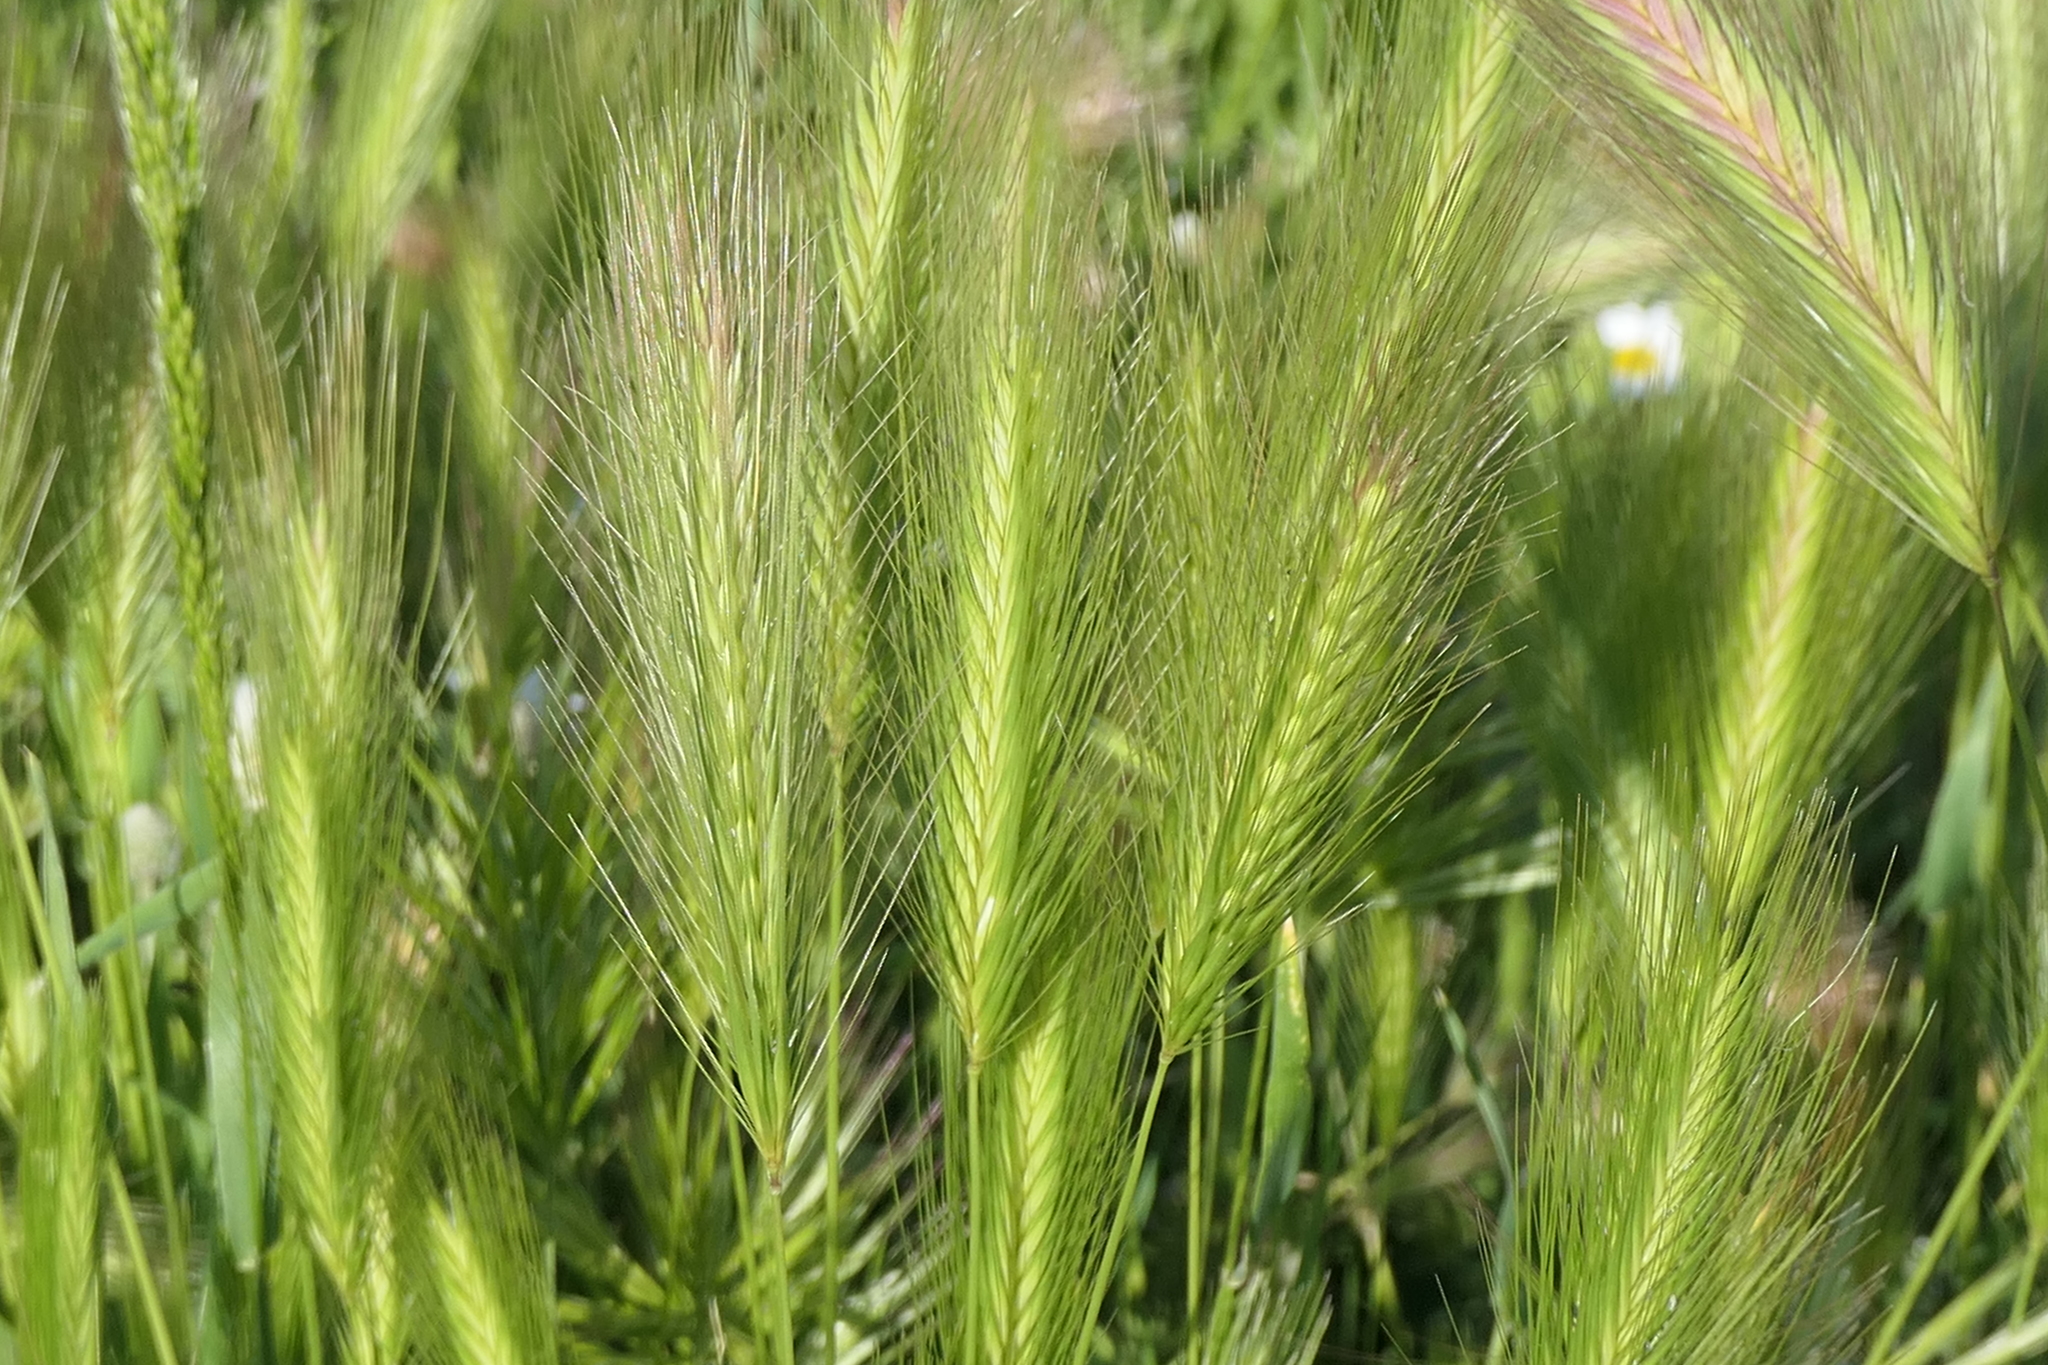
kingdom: Plantae
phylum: Tracheophyta
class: Liliopsida
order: Poales
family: Poaceae
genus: Hordeum
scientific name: Hordeum murinum
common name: Wall barley
